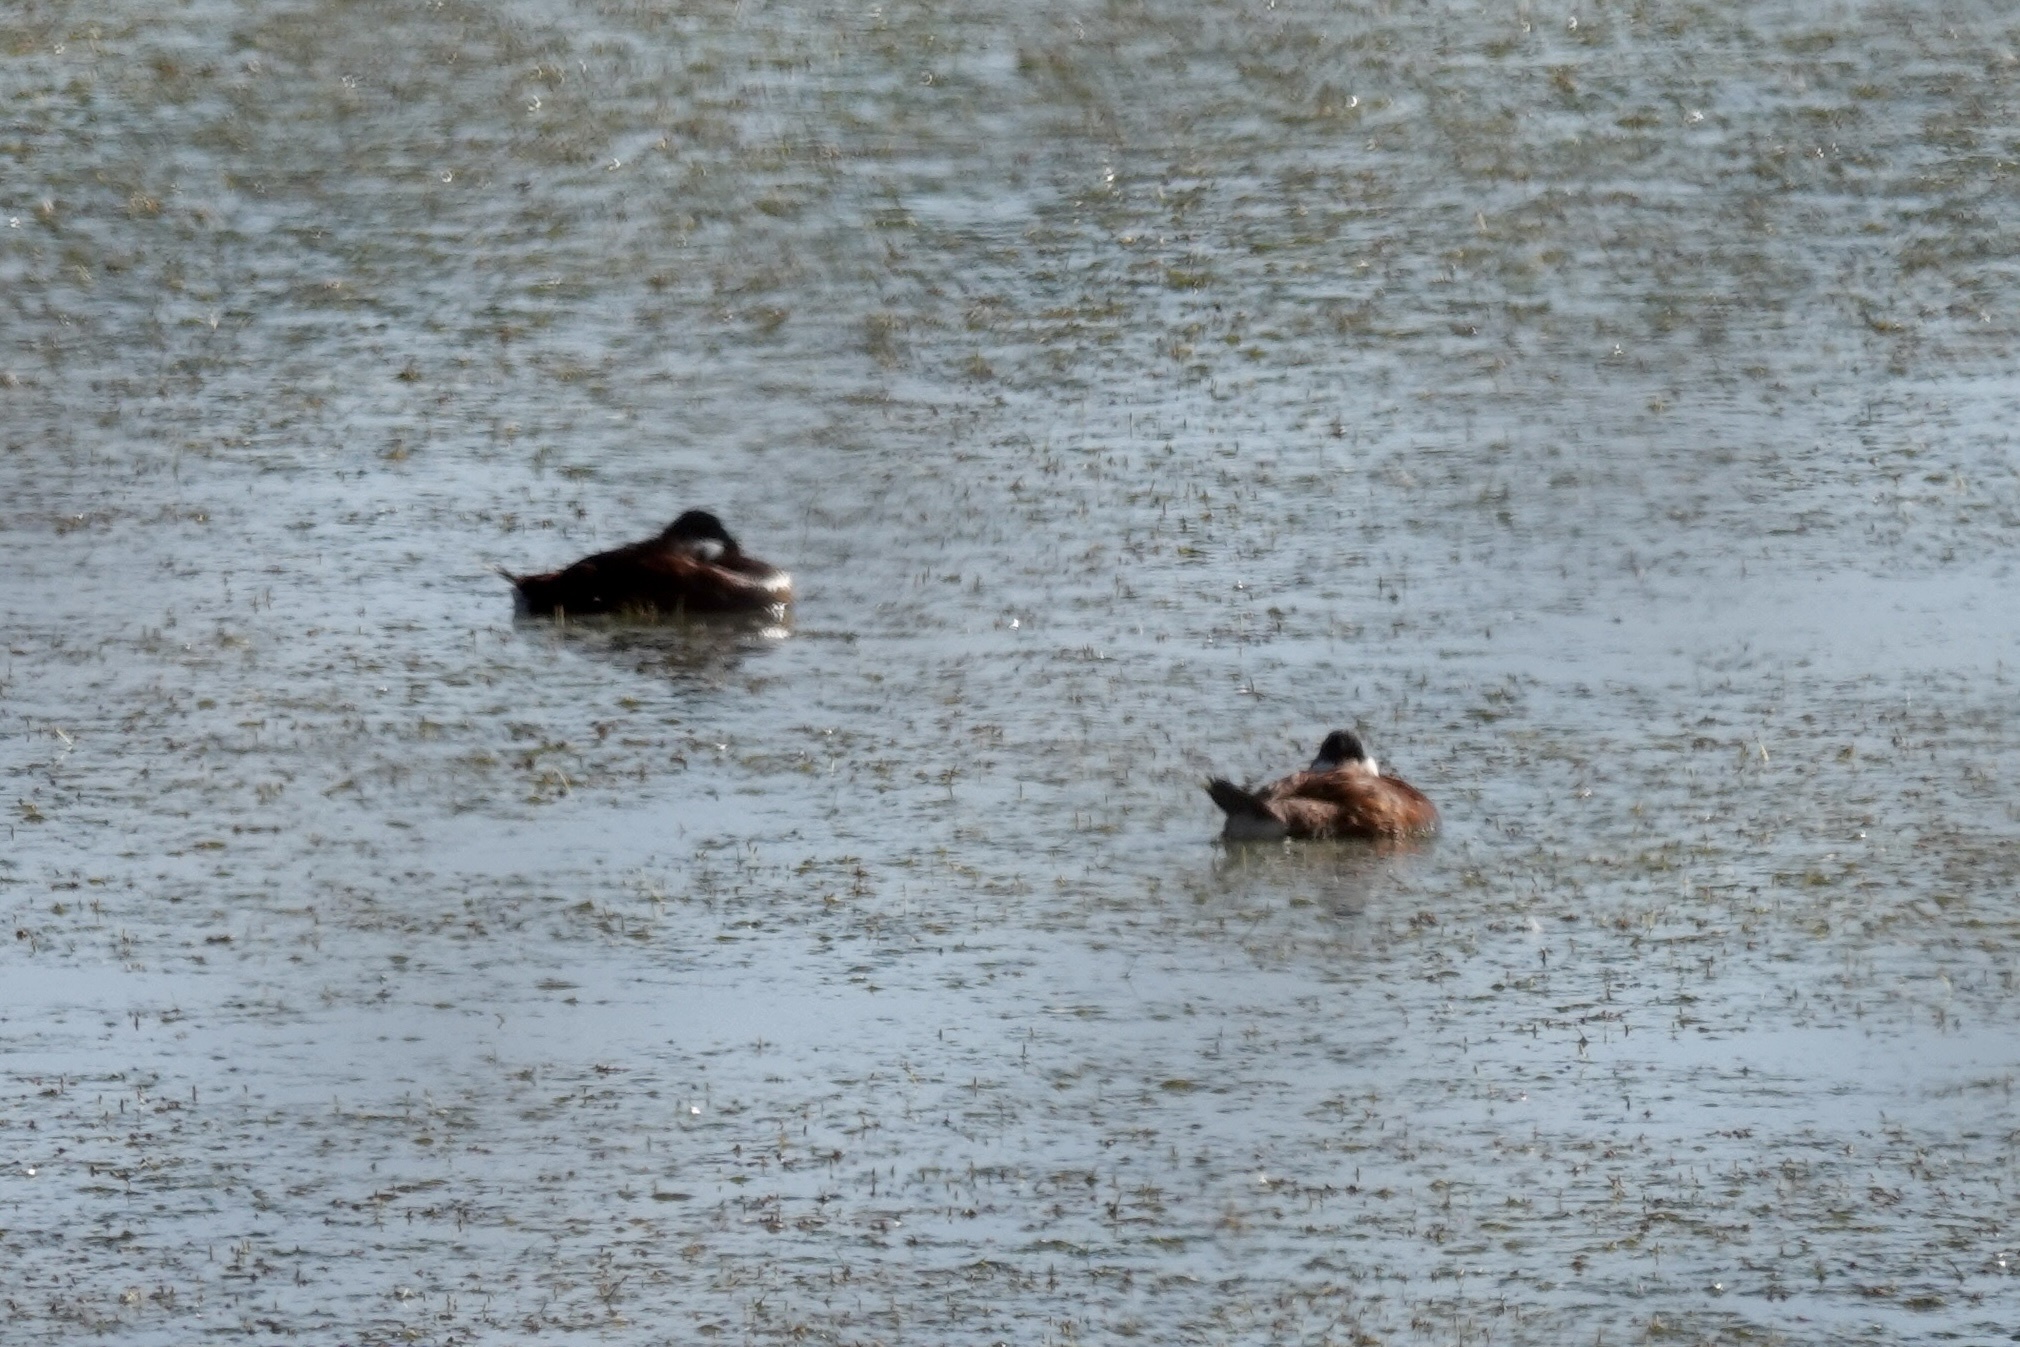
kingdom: Animalia
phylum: Chordata
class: Aves
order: Anseriformes
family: Anatidae
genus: Oxyura
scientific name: Oxyura jamaicensis
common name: Ruddy duck
